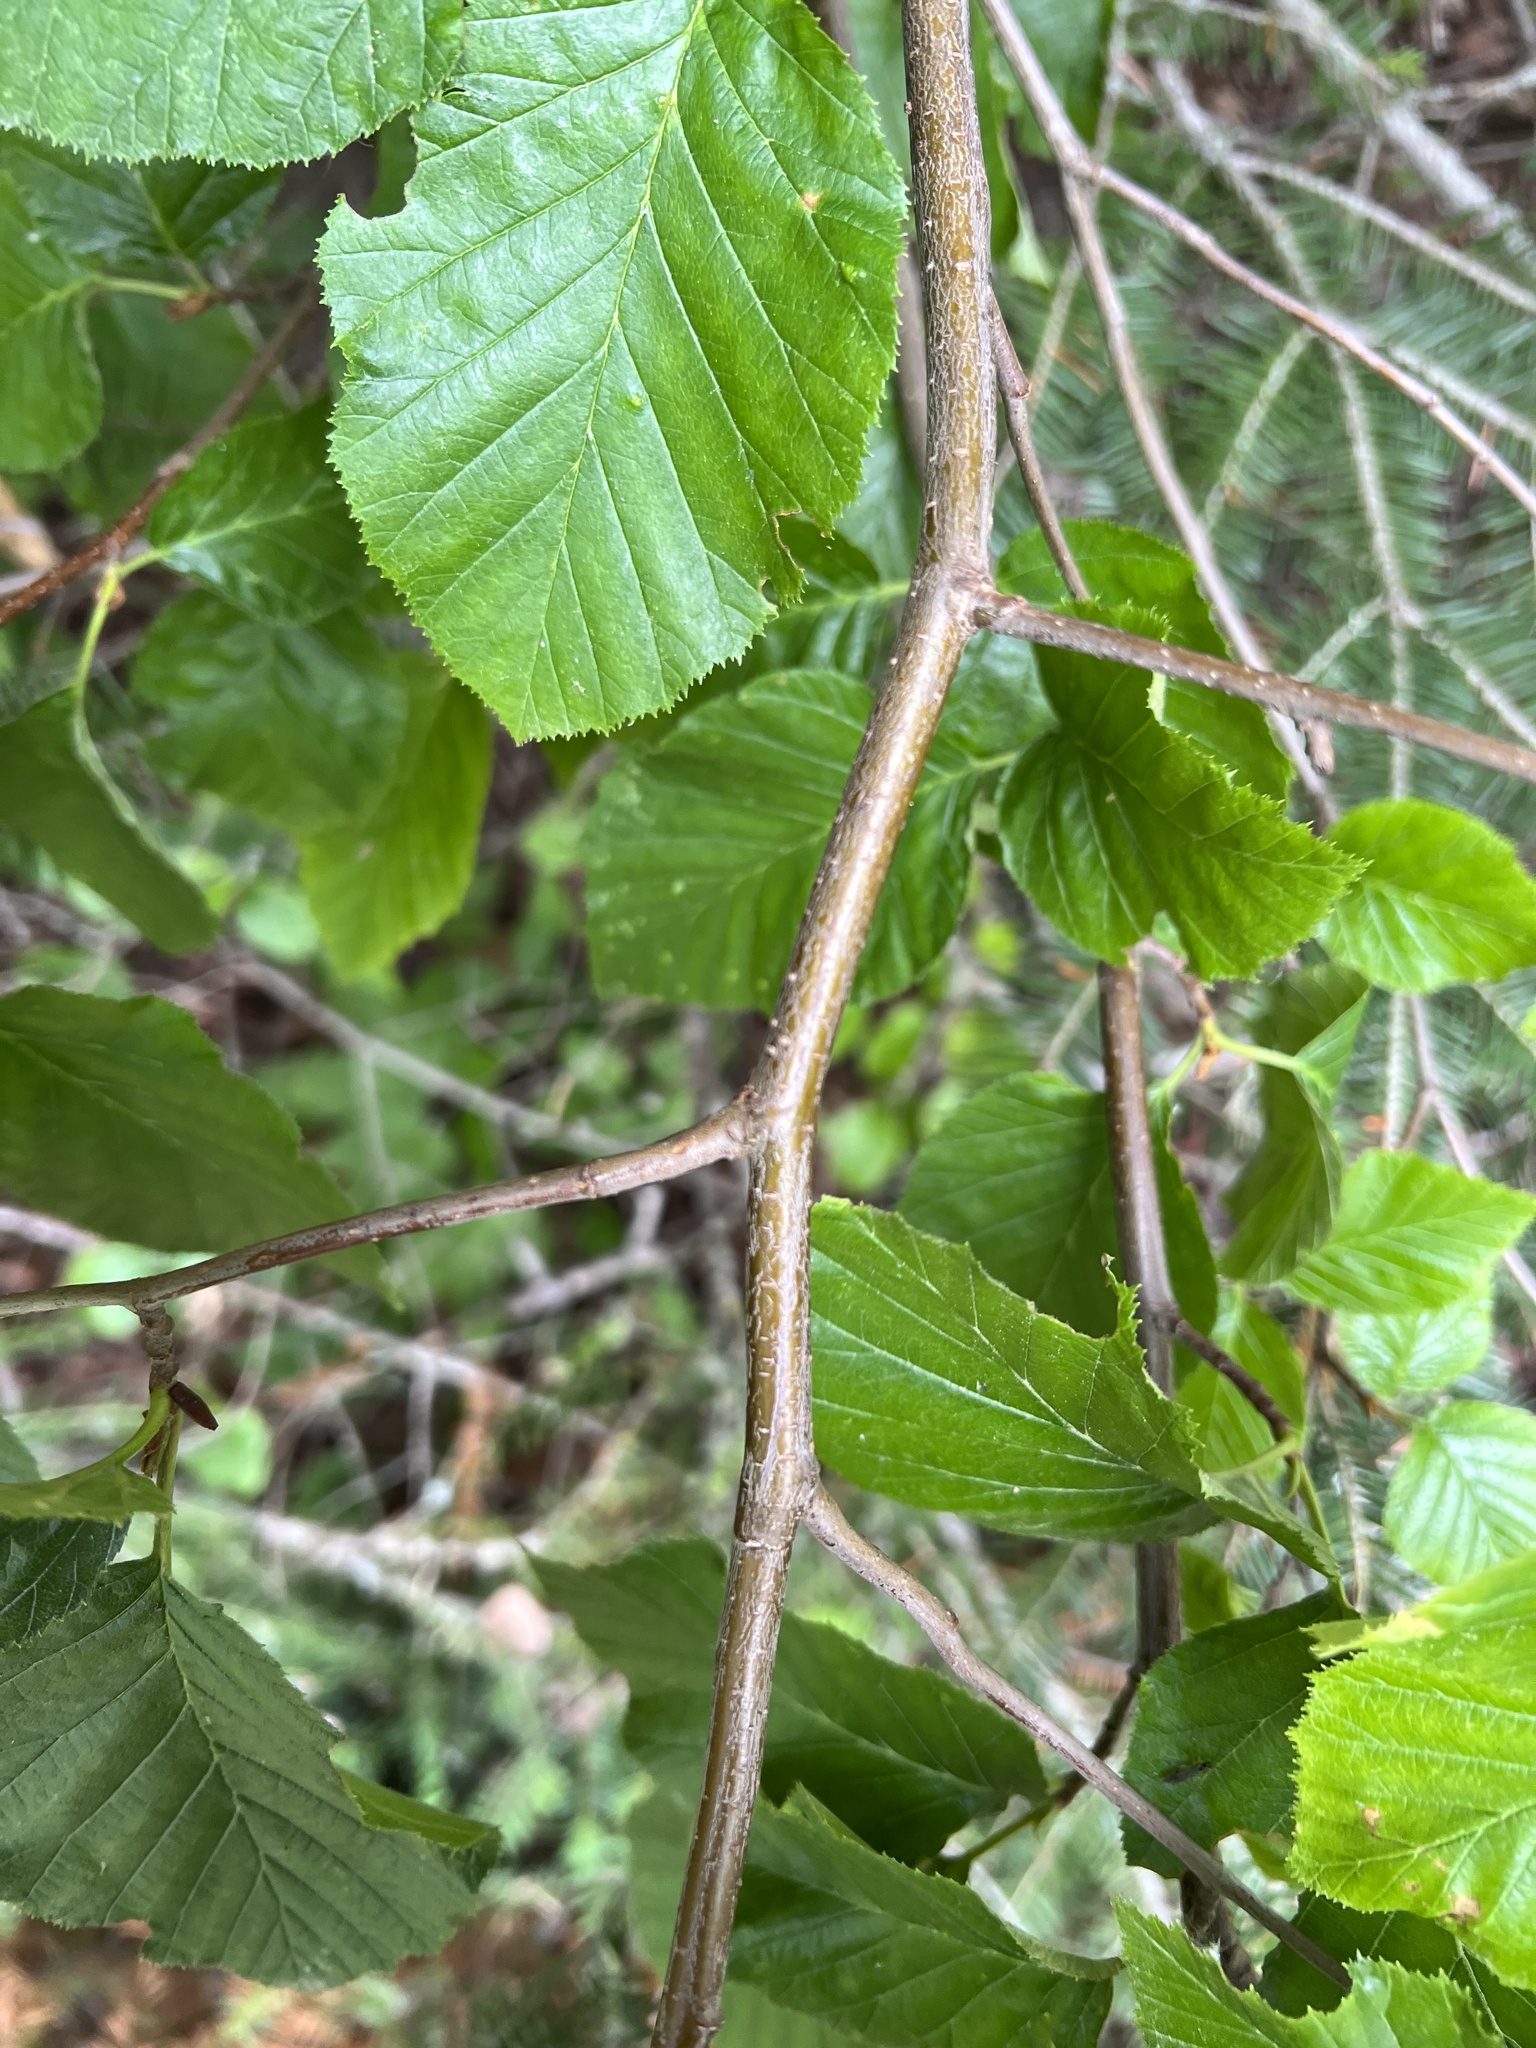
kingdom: Plantae
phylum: Tracheophyta
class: Magnoliopsida
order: Fagales
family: Betulaceae
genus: Alnus
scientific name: Alnus alnobetula
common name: Green alder
